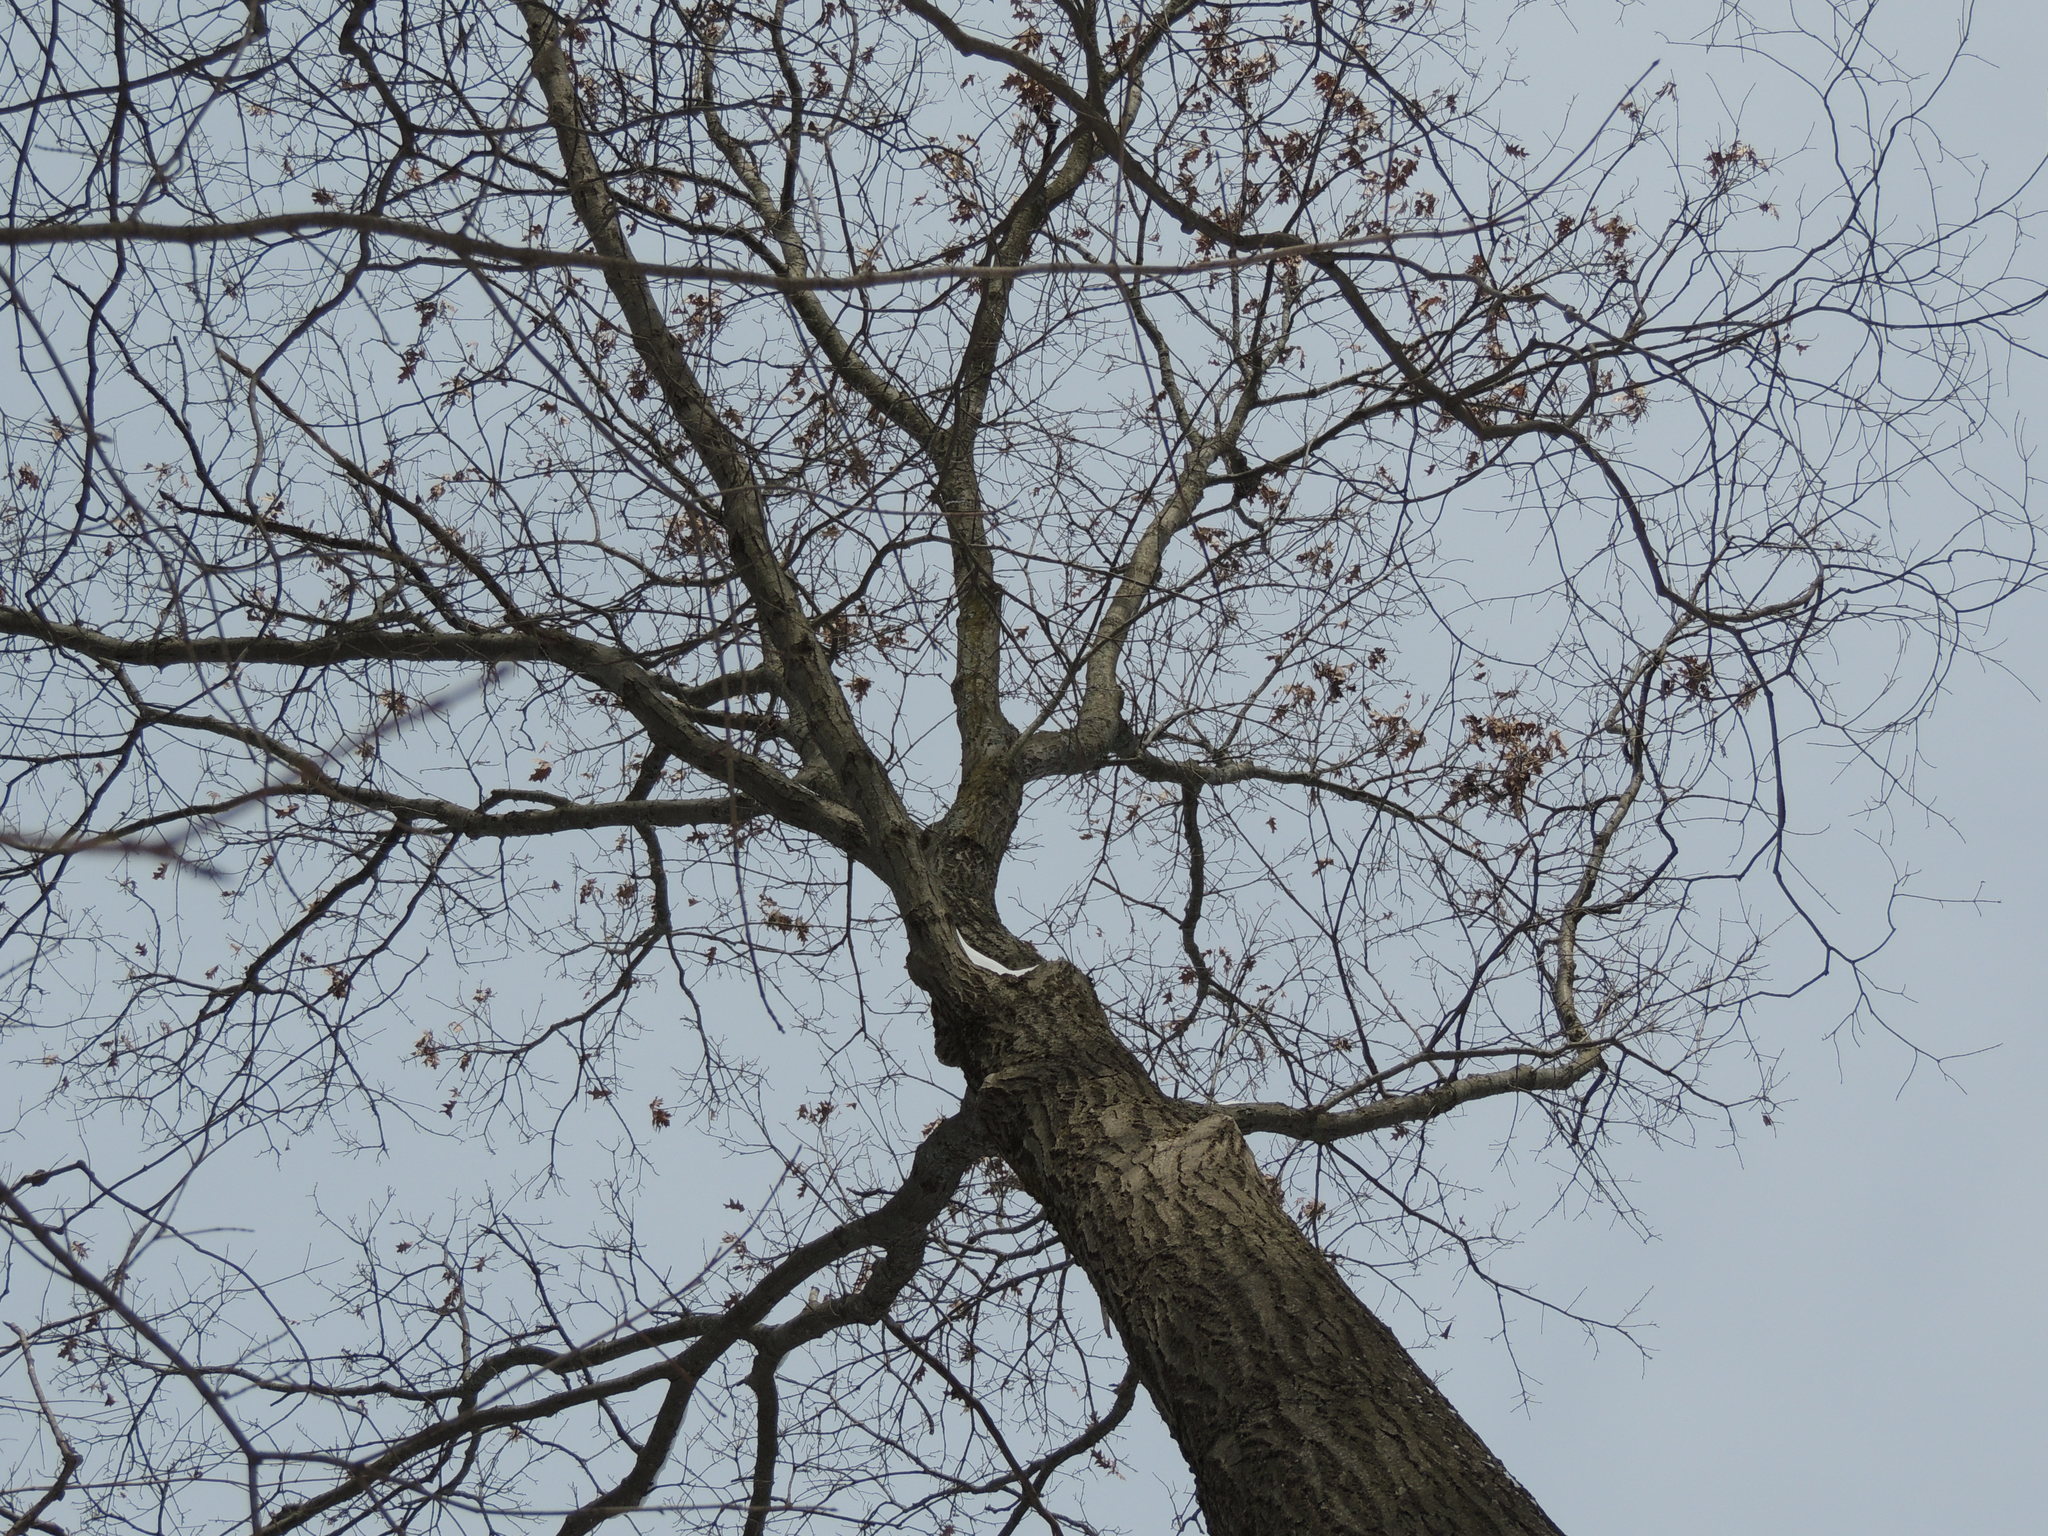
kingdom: Plantae
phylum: Tracheophyta
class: Magnoliopsida
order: Fagales
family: Fagaceae
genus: Quercus
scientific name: Quercus rubra
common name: Red oak
